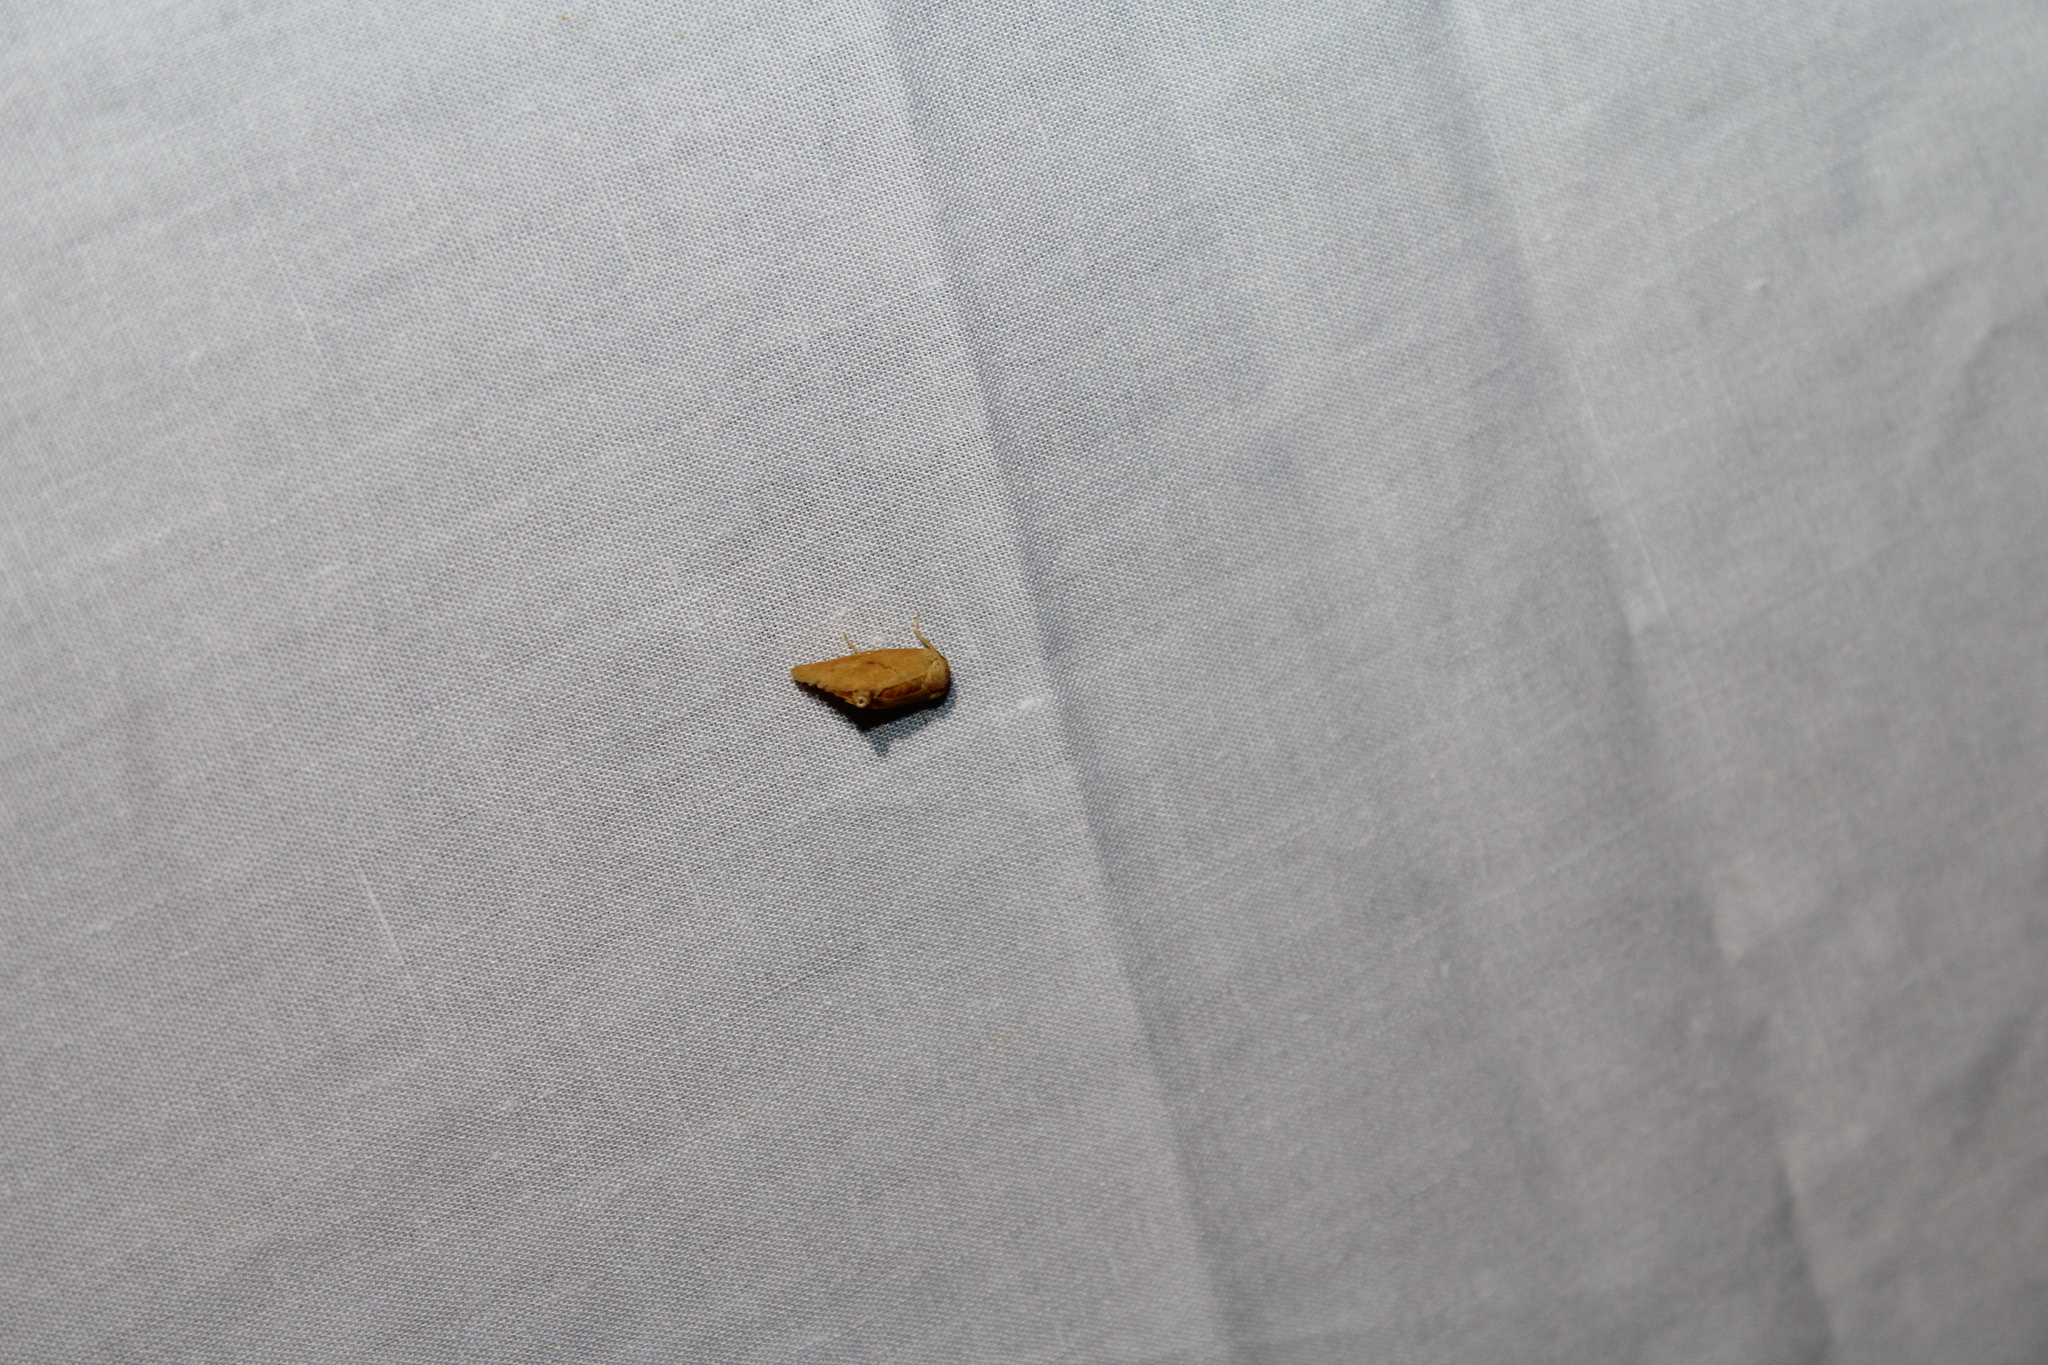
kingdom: Animalia
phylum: Arthropoda
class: Insecta
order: Lepidoptera
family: Limacodidae
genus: Tortricidia
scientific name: Tortricidia pallida
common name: Red-crossed button slug moth
